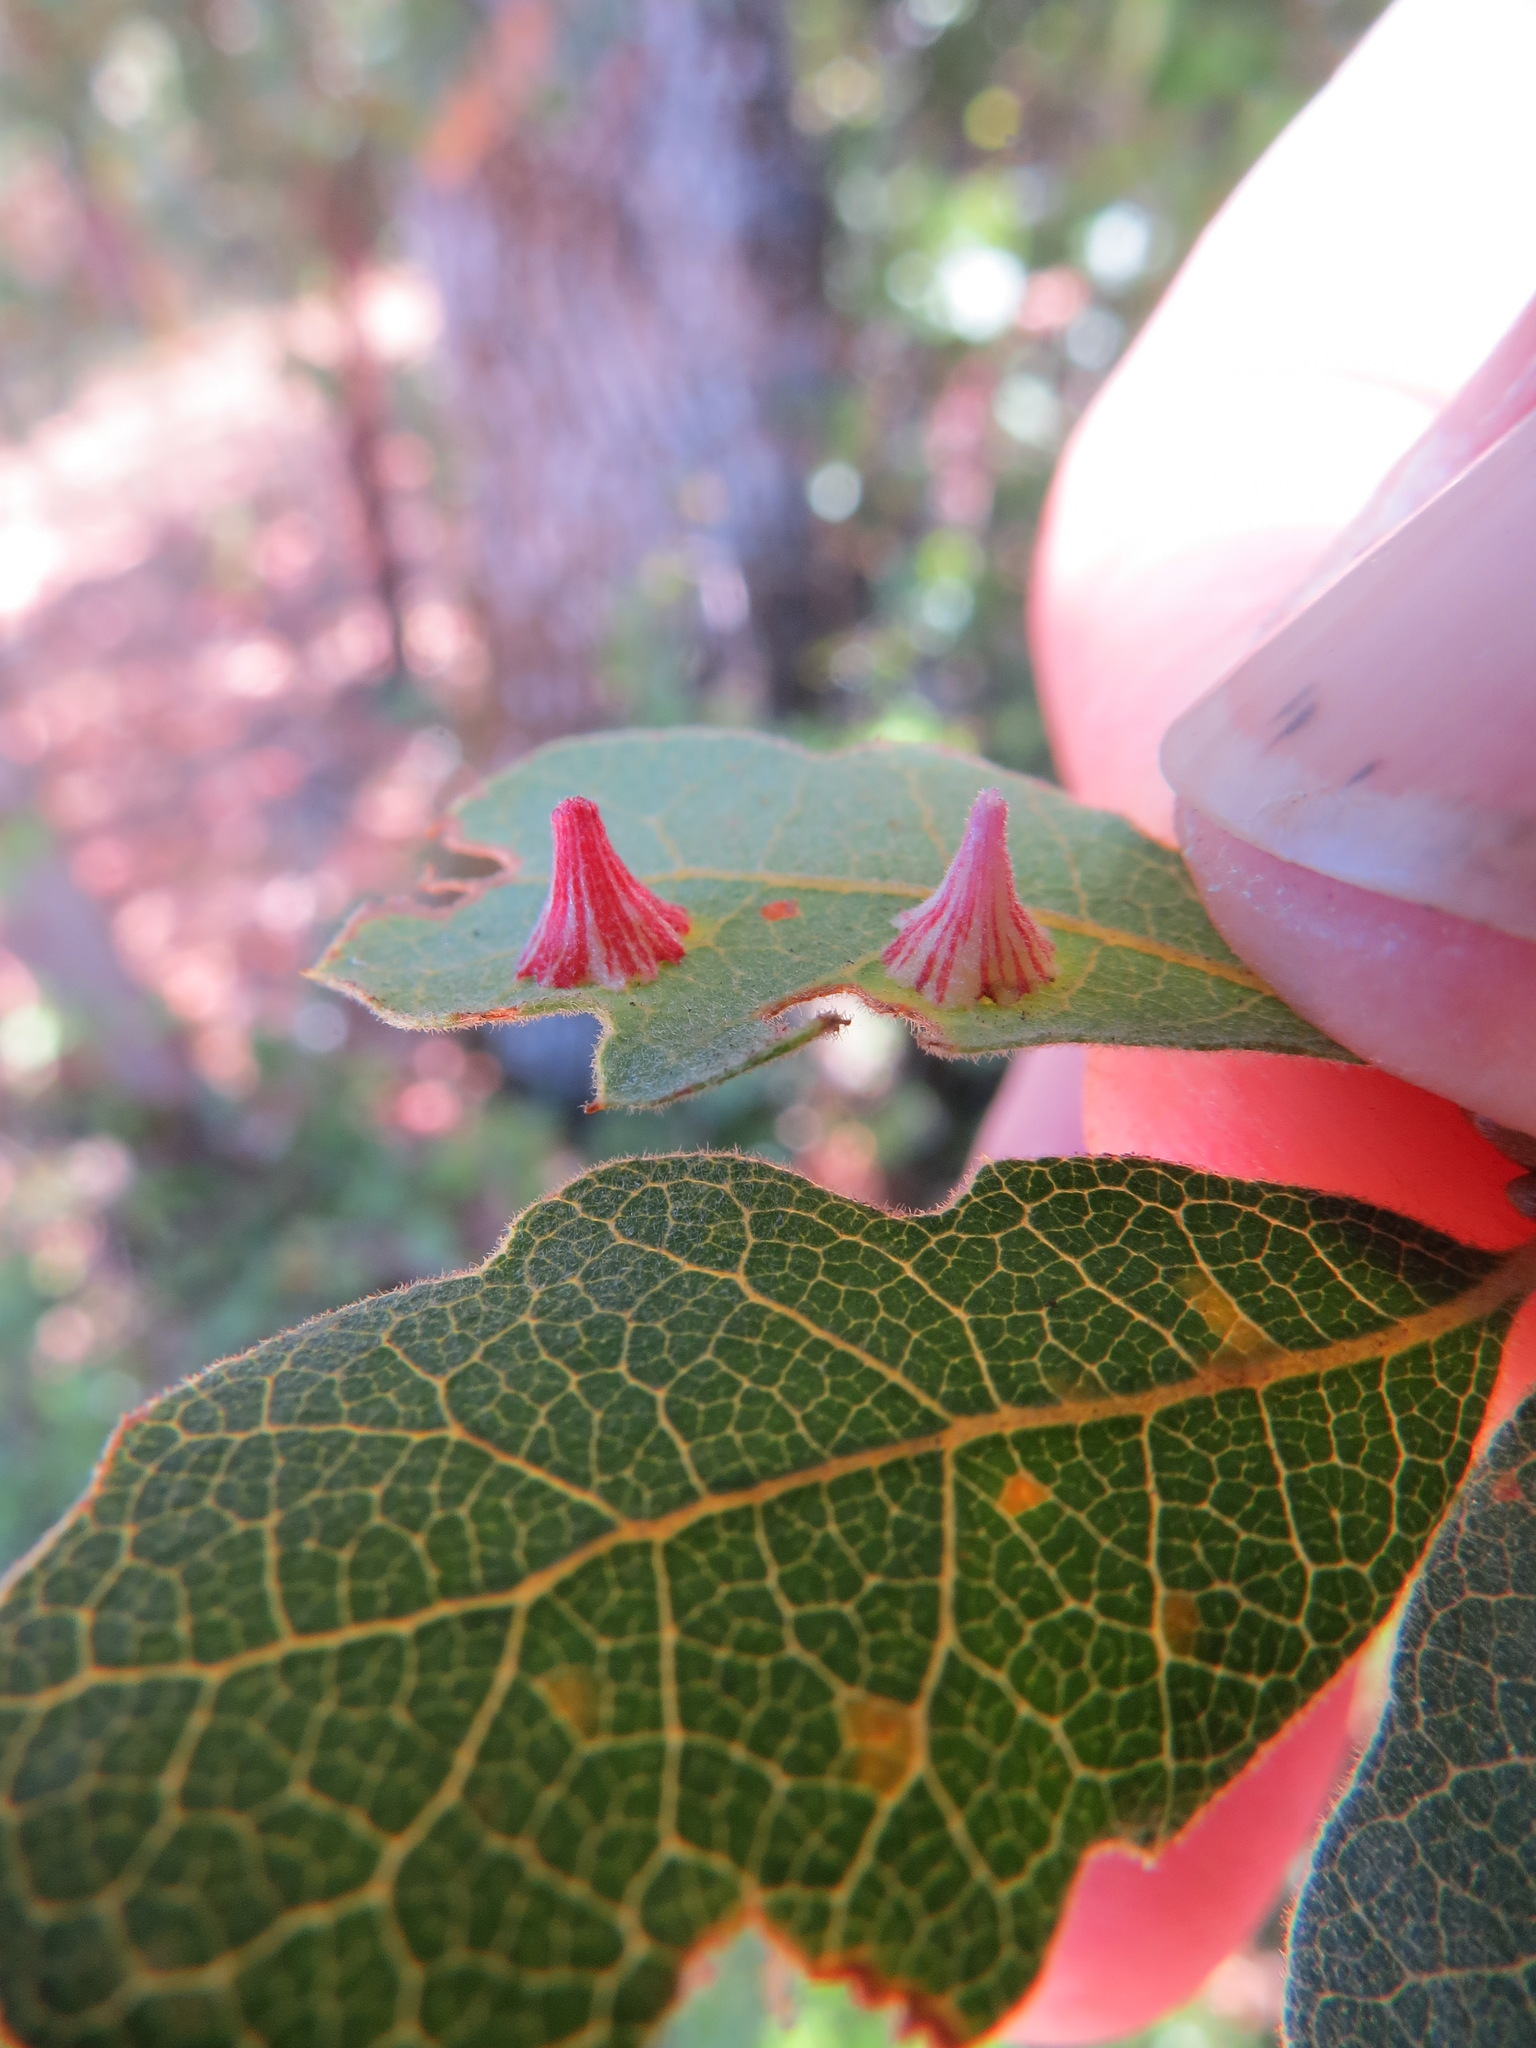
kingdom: Animalia
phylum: Arthropoda
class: Insecta
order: Hymenoptera
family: Cynipidae
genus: Andricus
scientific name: Andricus
